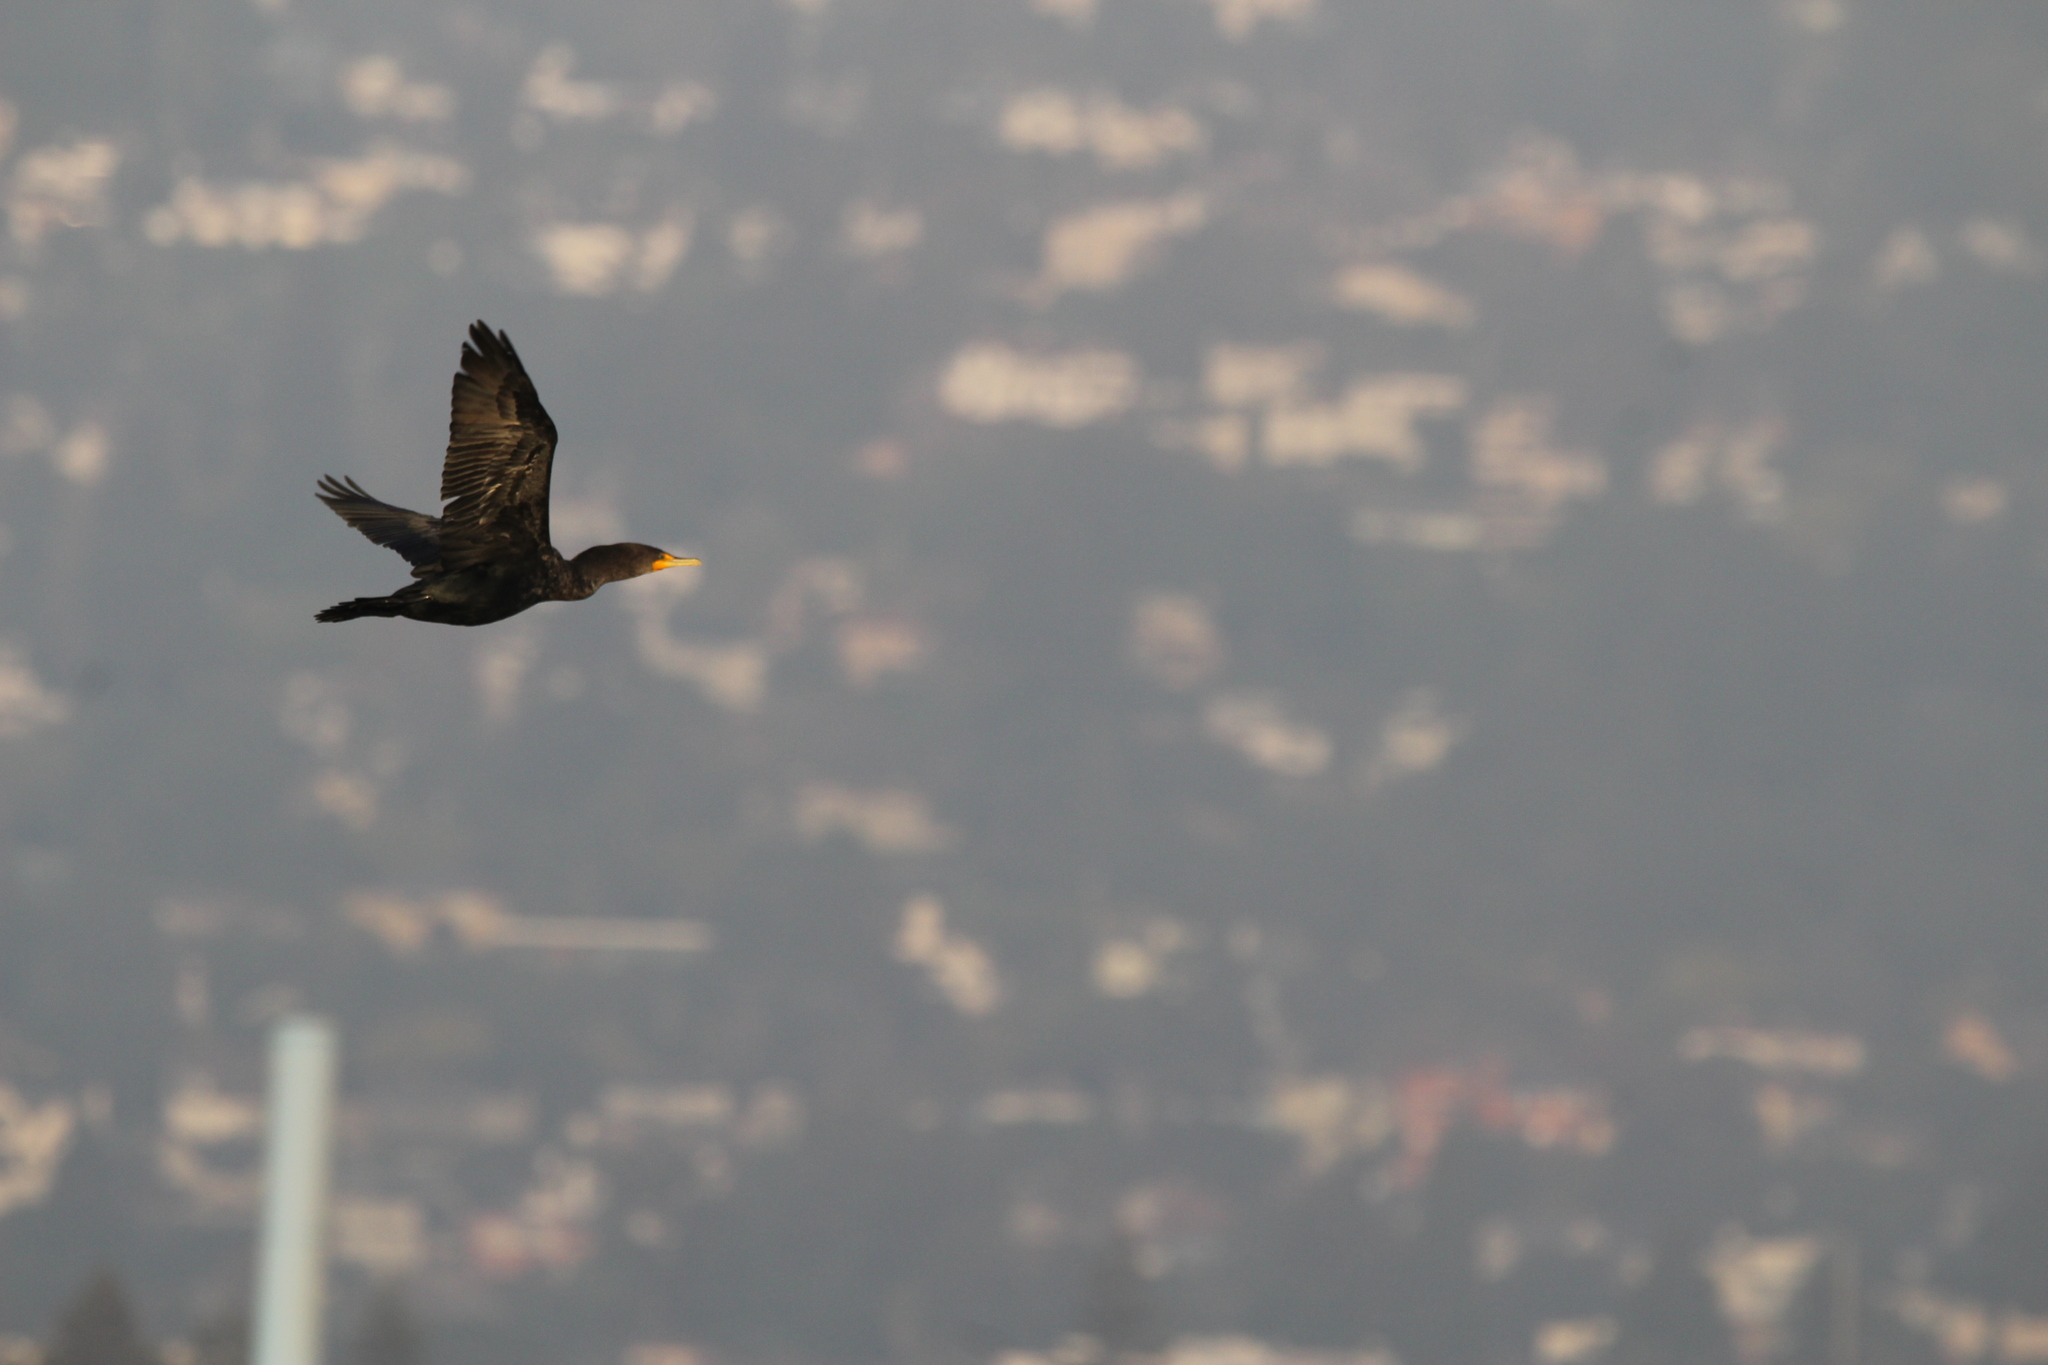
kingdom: Animalia
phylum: Chordata
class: Aves
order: Suliformes
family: Phalacrocoracidae
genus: Phalacrocorax
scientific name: Phalacrocorax auritus
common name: Double-crested cormorant
